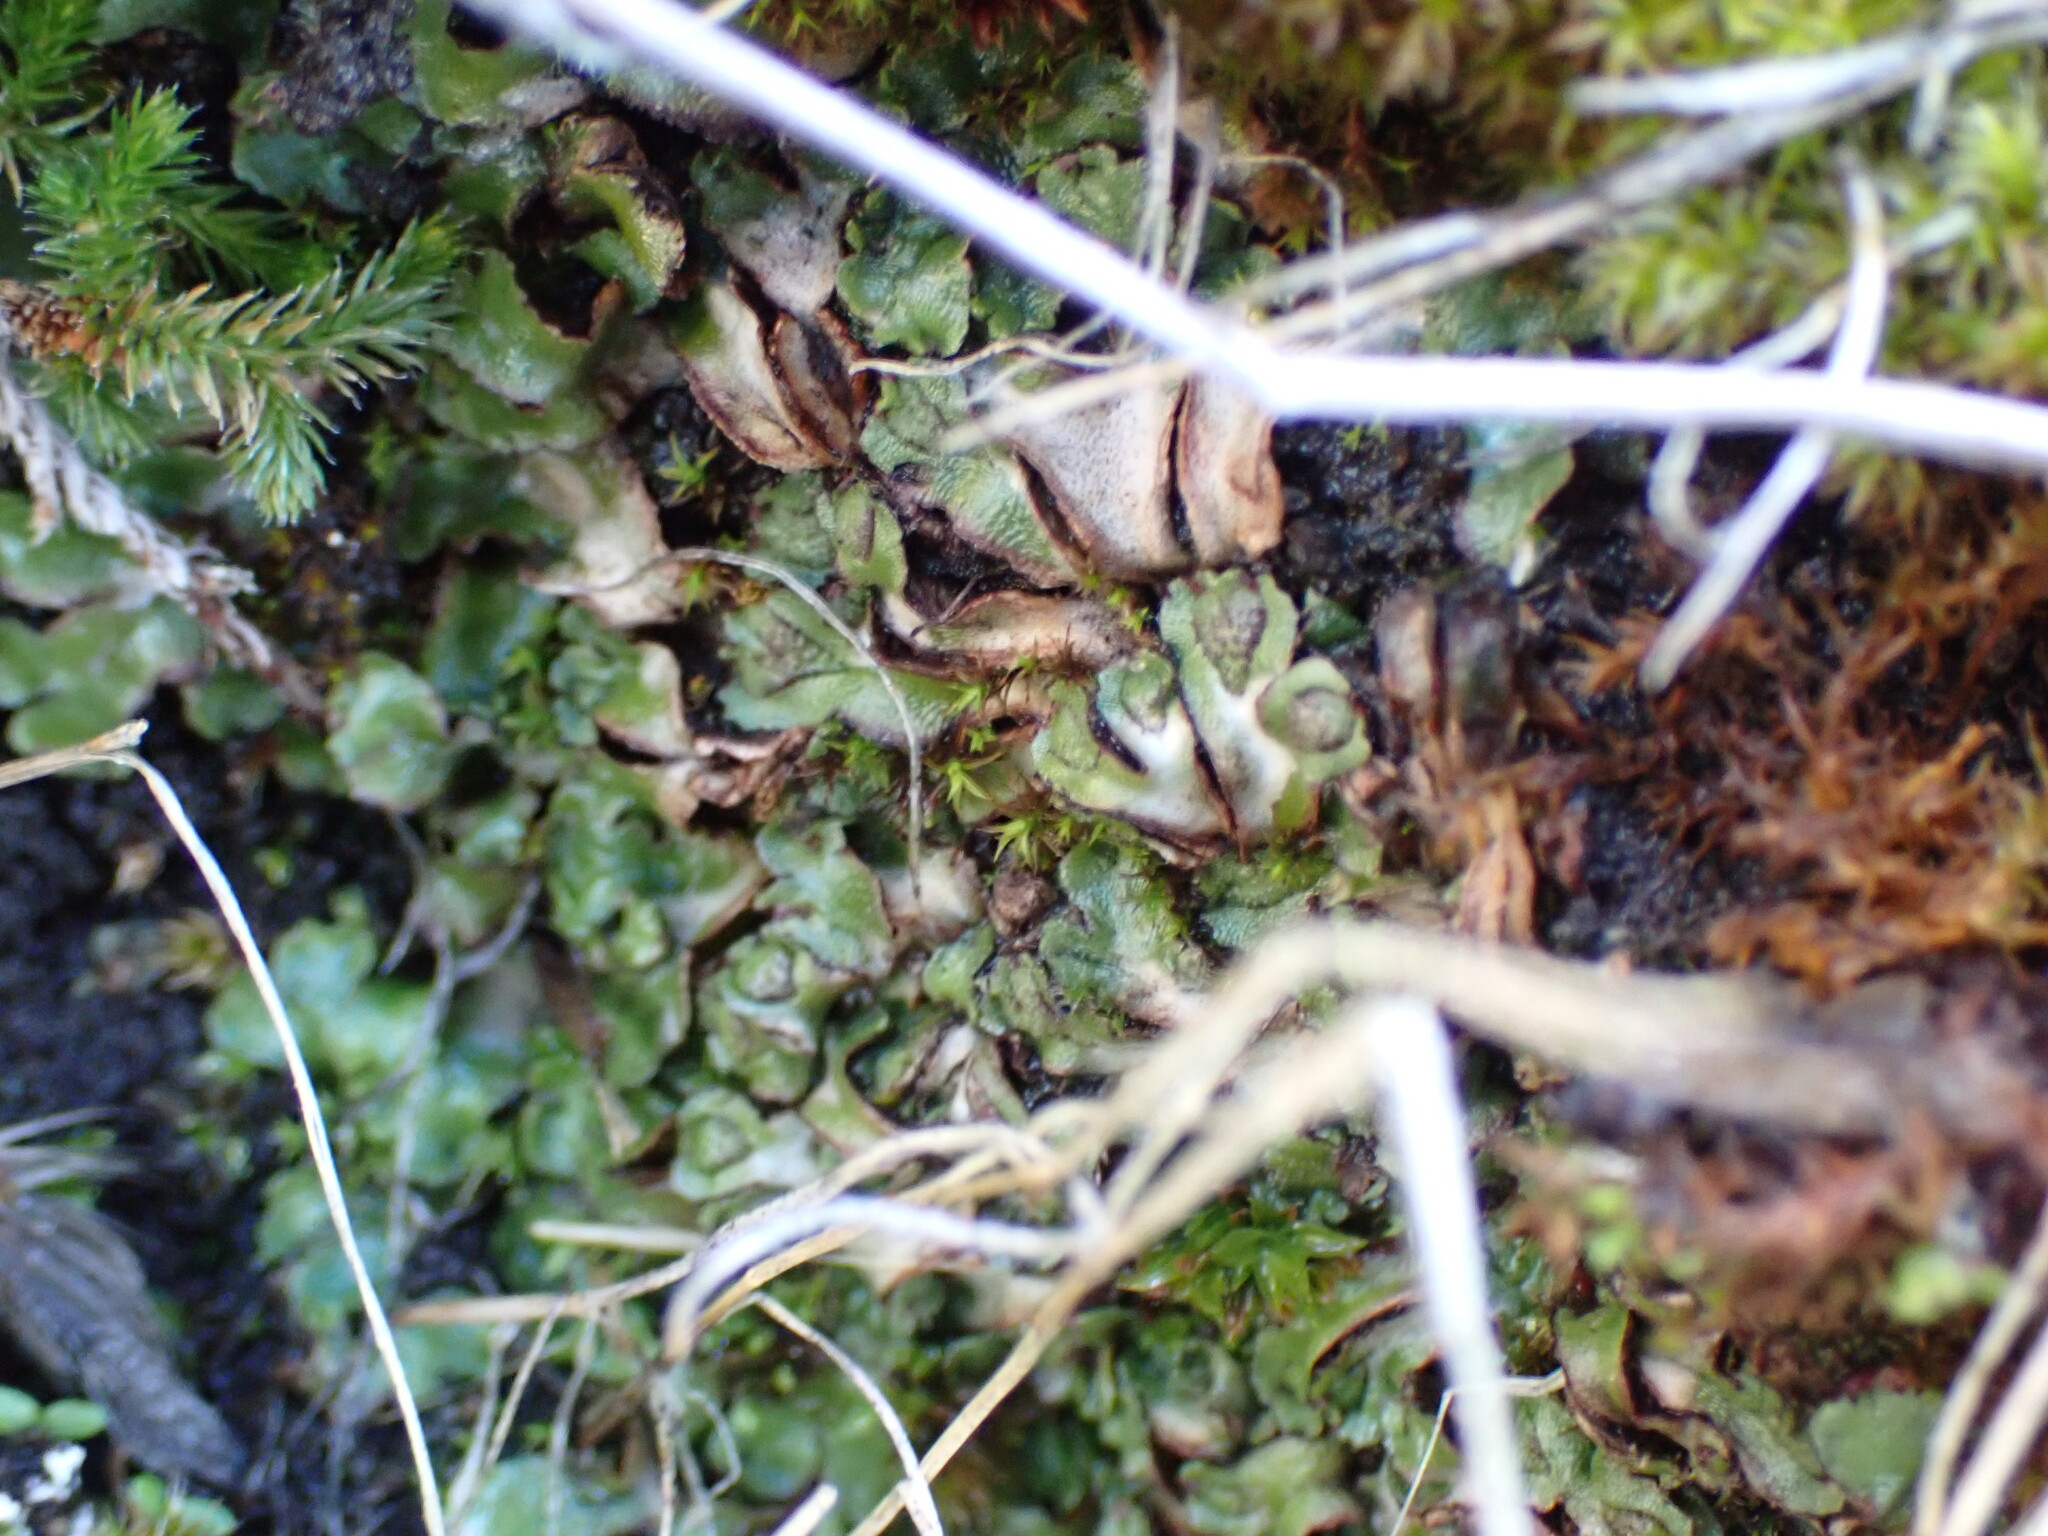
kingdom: Plantae
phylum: Marchantiophyta
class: Marchantiopsida
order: Marchantiales
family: Aytoniaceae
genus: Mannia
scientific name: Mannia gracilis
